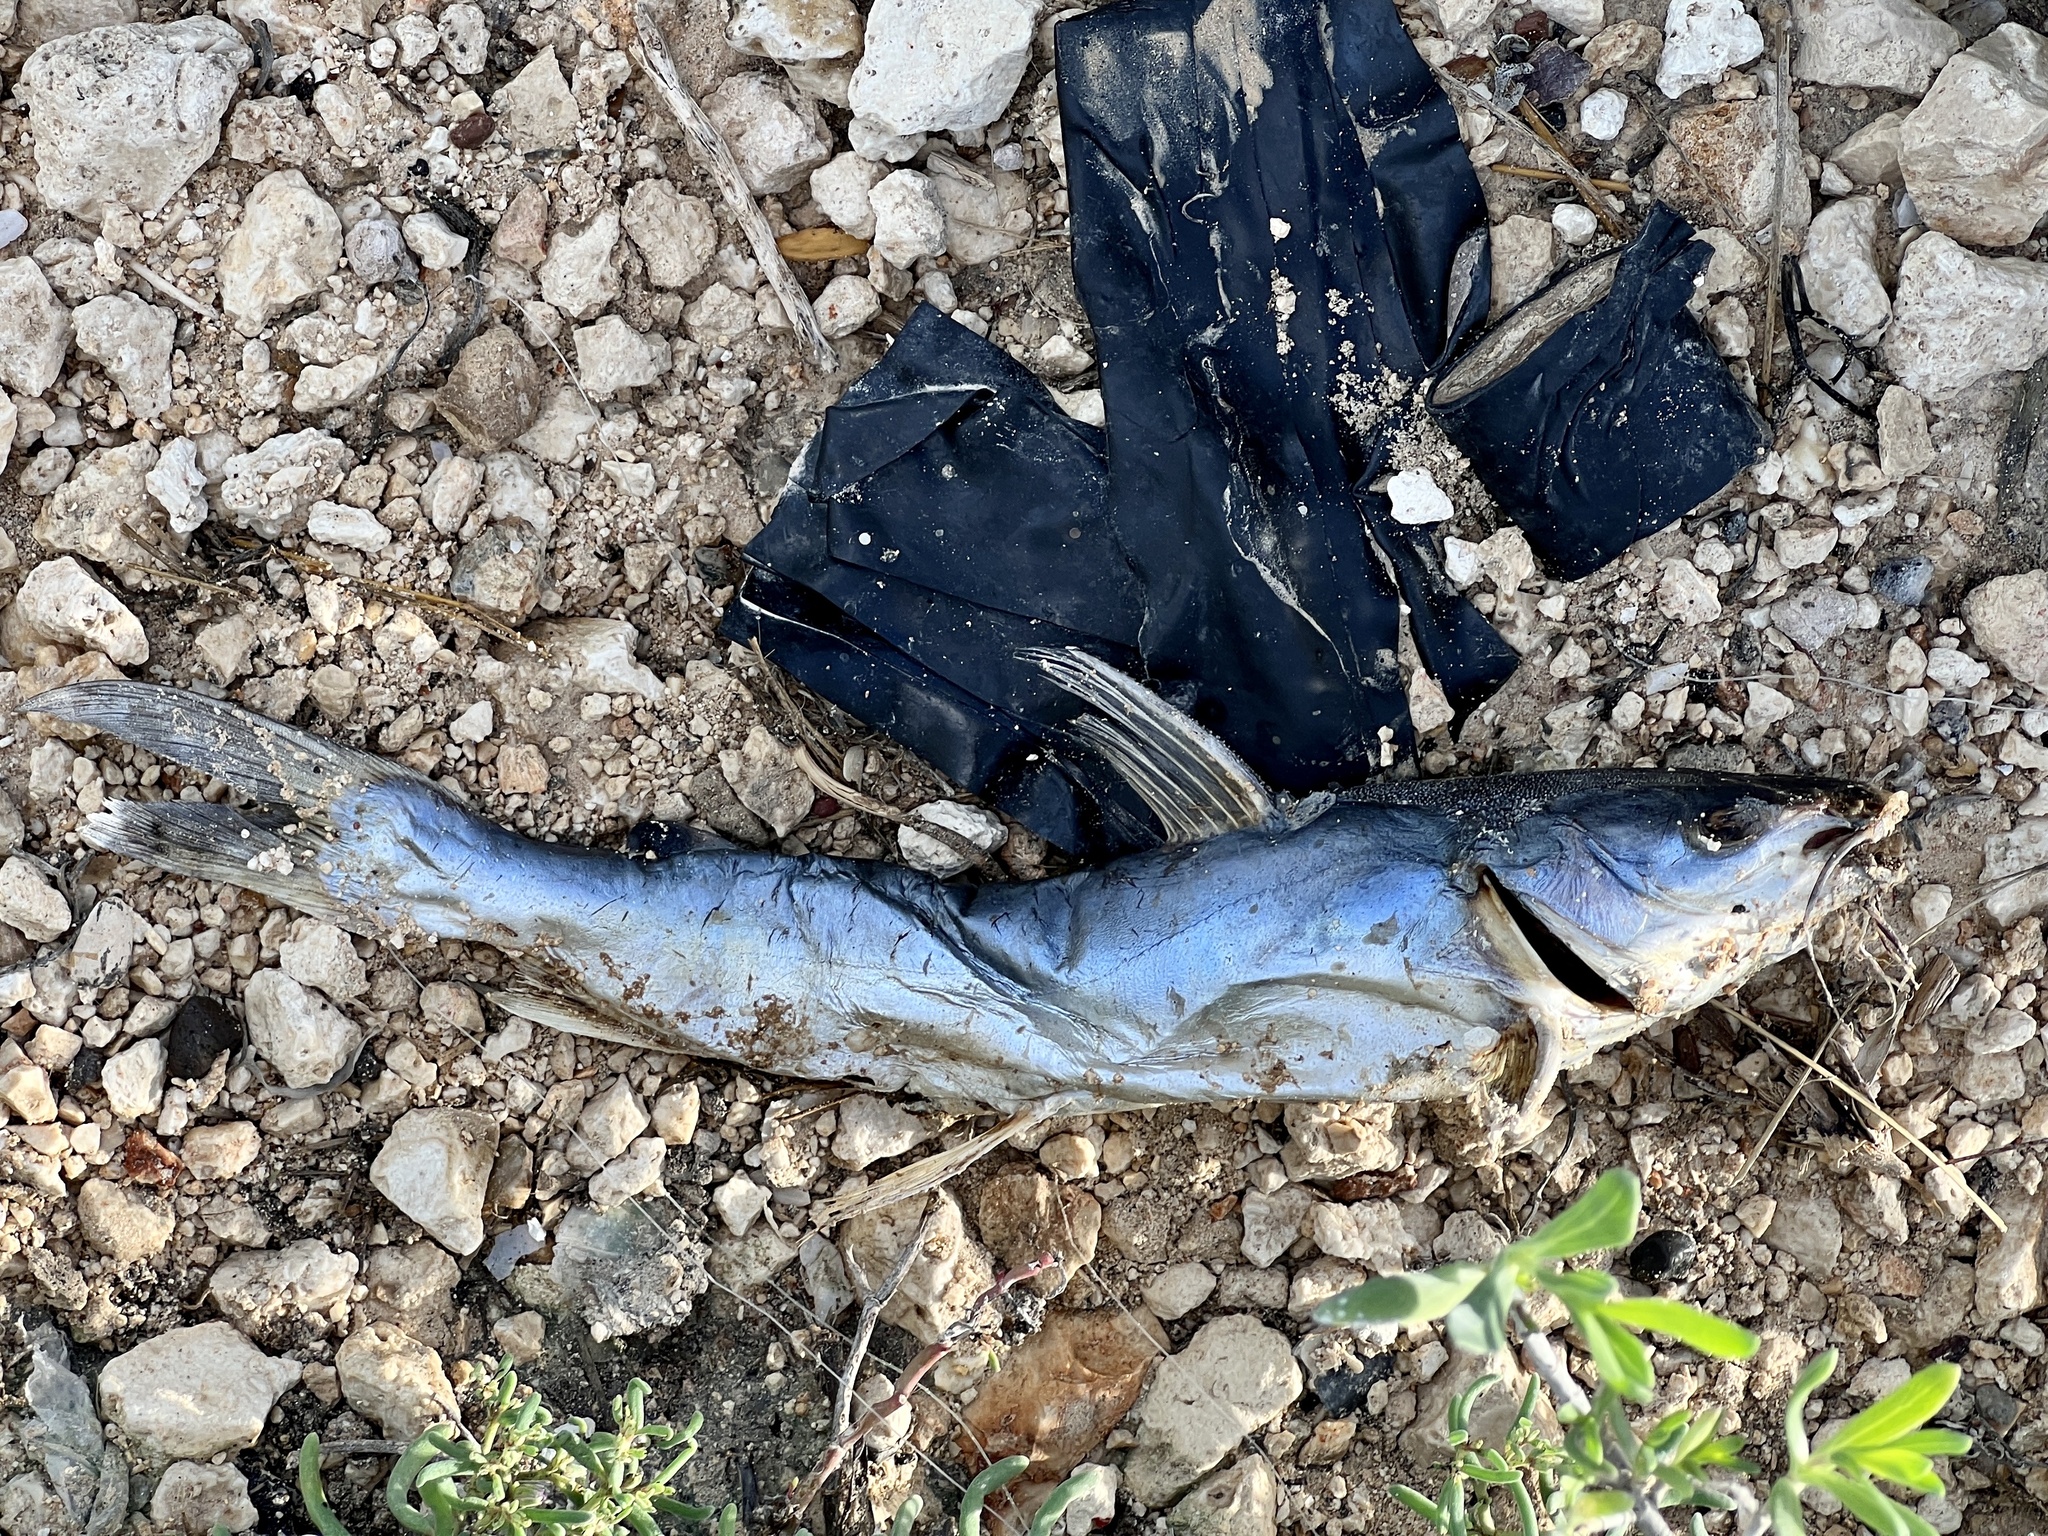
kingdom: Animalia
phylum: Chordata
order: Siluriformes
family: Ariidae
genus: Ariopsis
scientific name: Ariopsis felis
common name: Hardhead catfish
